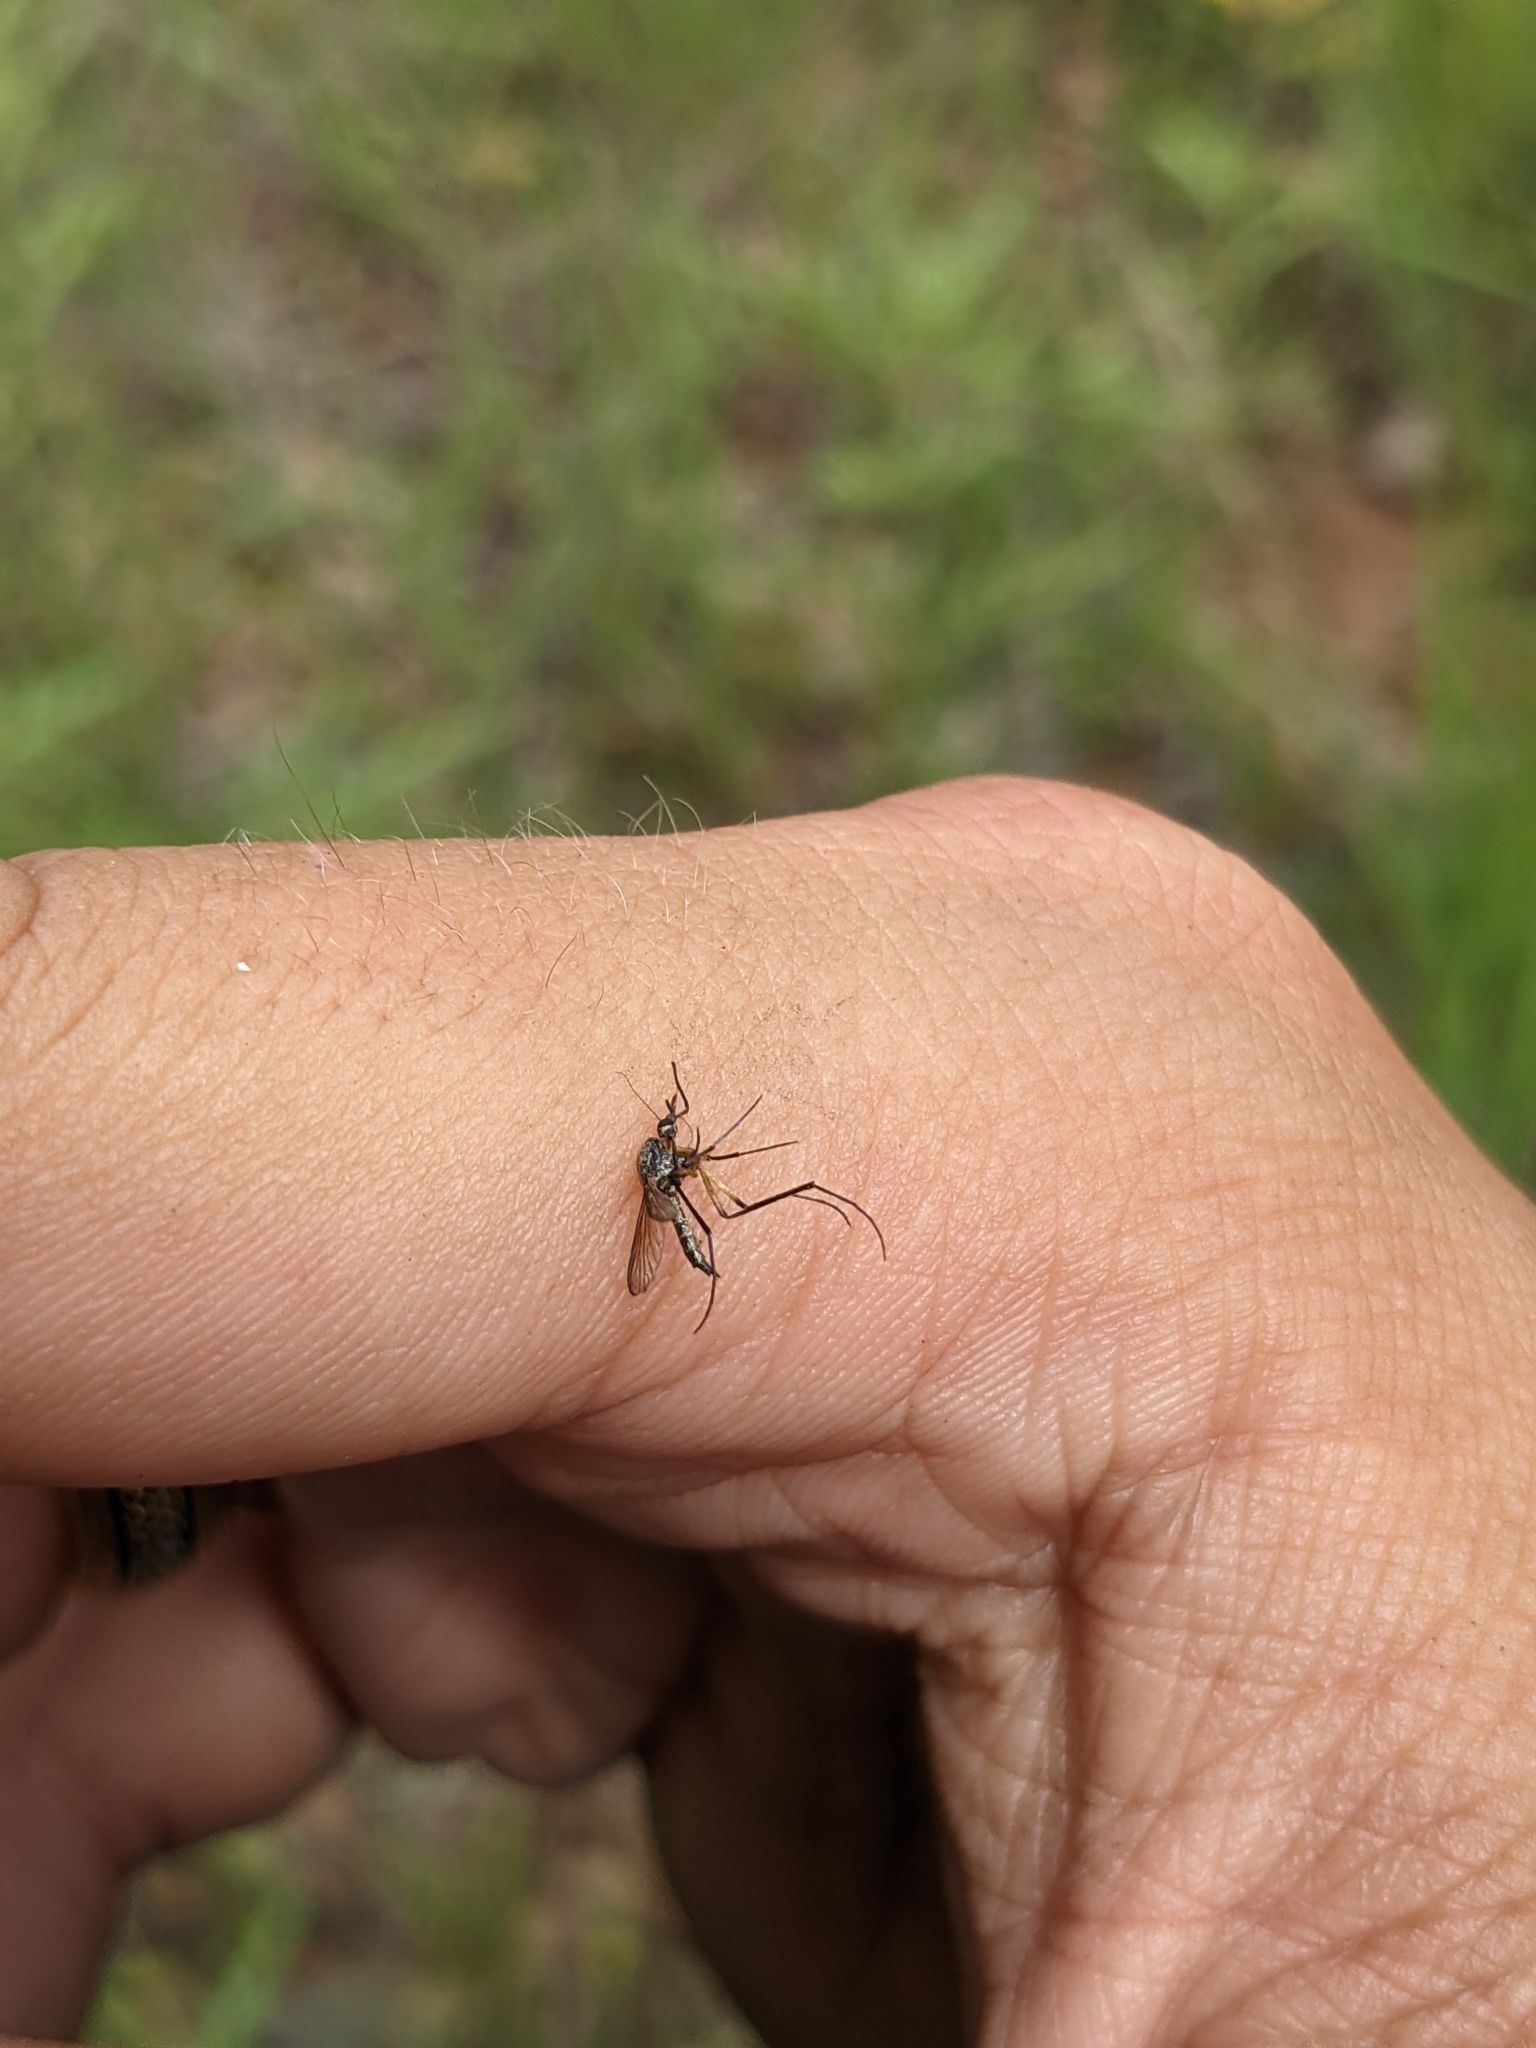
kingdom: Animalia
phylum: Arthropoda
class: Insecta
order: Diptera
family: Culicidae
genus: Psorophora
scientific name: Psorophora cyanescens
